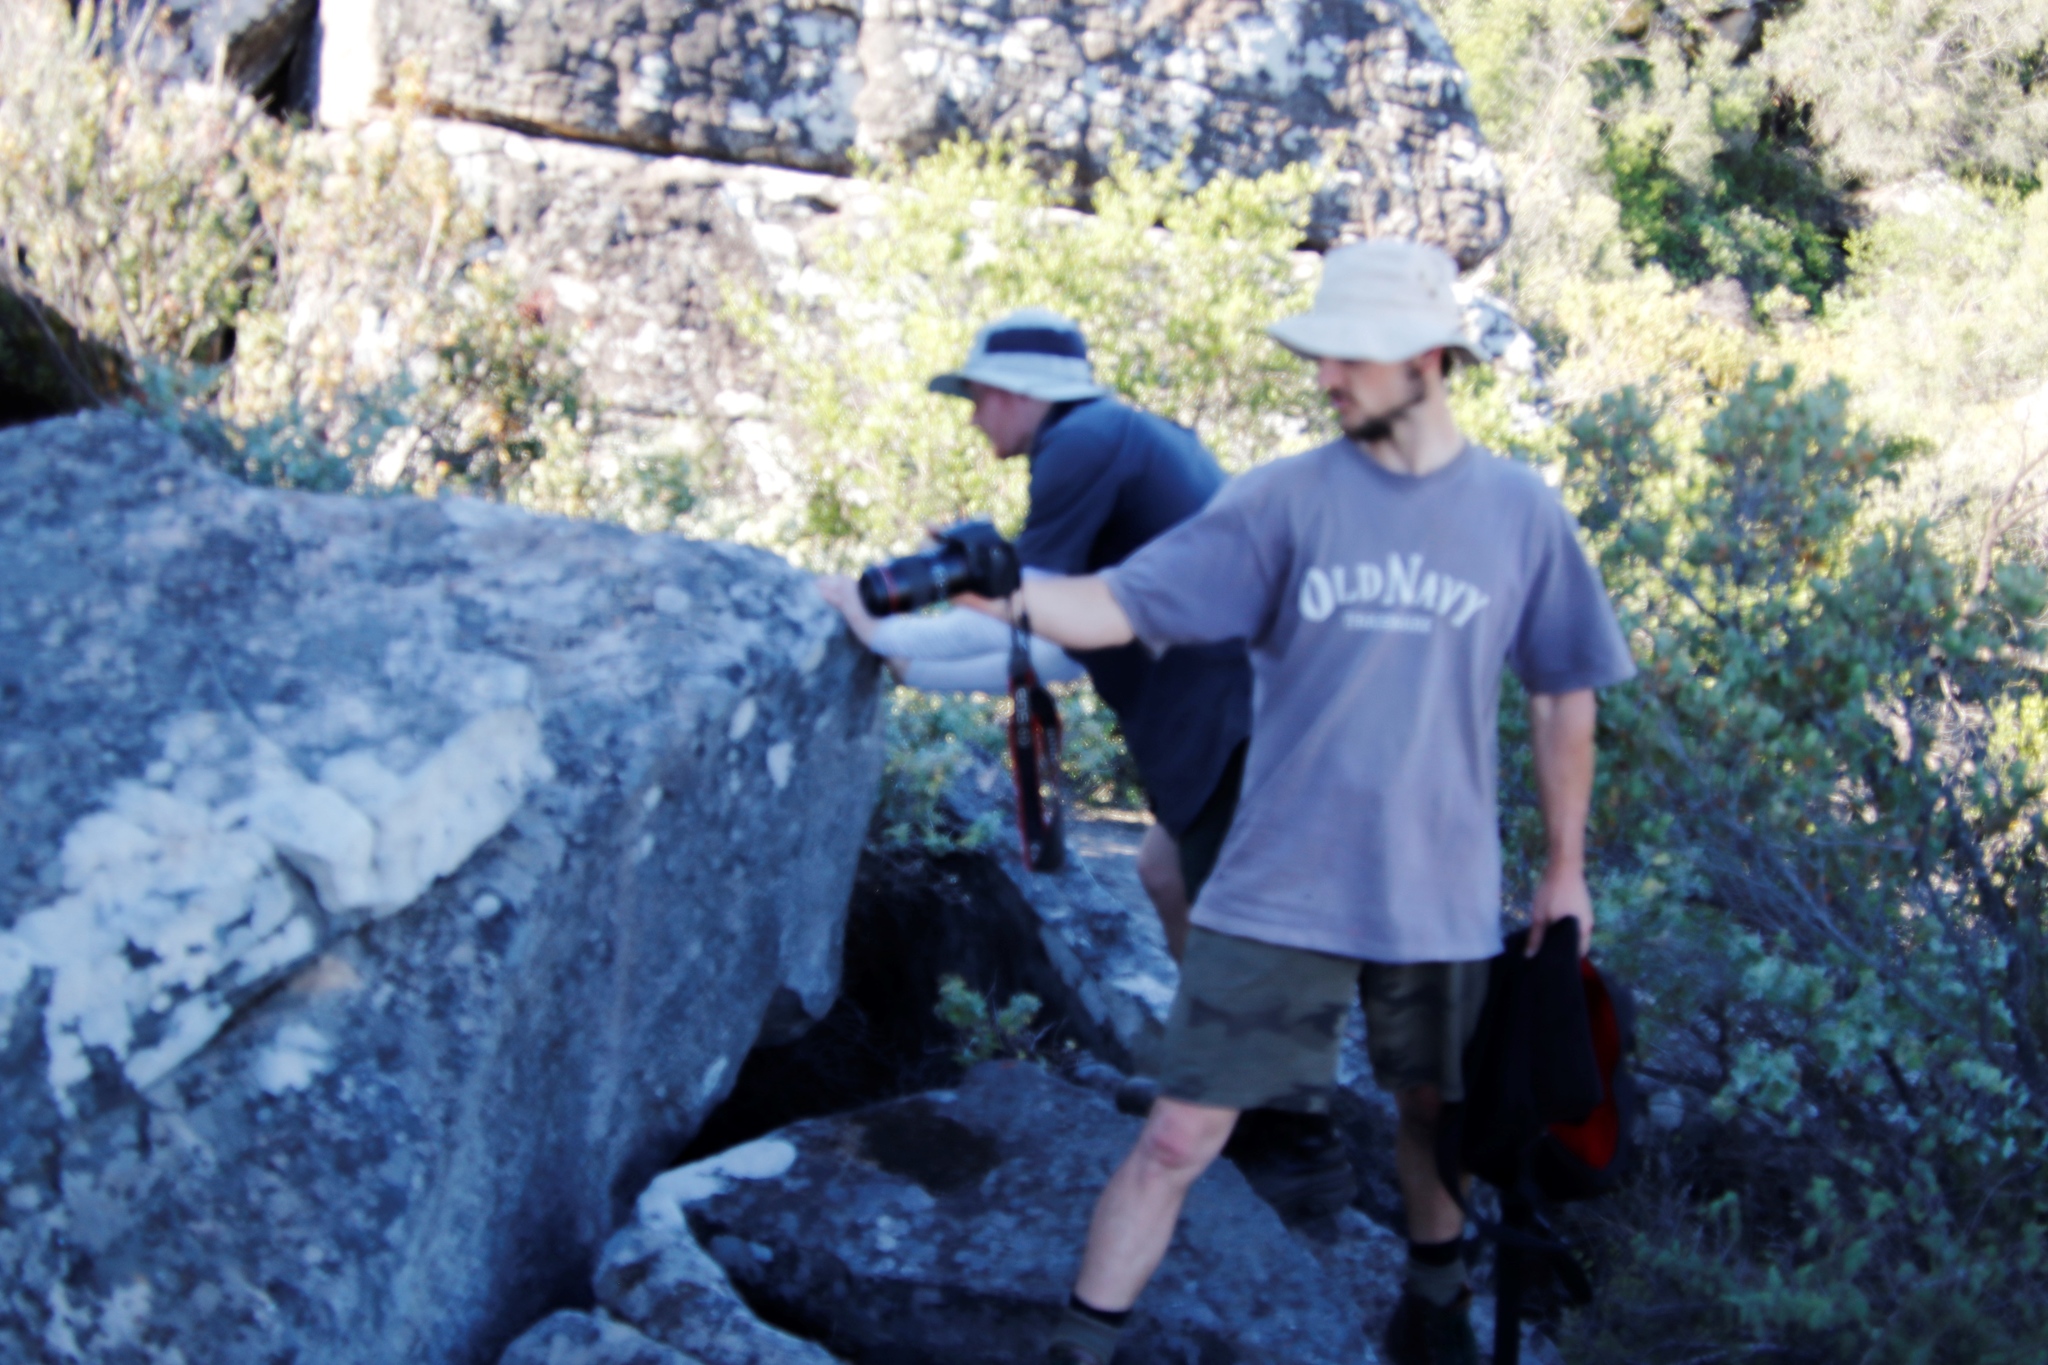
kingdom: Animalia
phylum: Chordata
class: Squamata
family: Cordylidae
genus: Hemicordylus
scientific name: Hemicordylus capensis
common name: Graceful crag lizard
